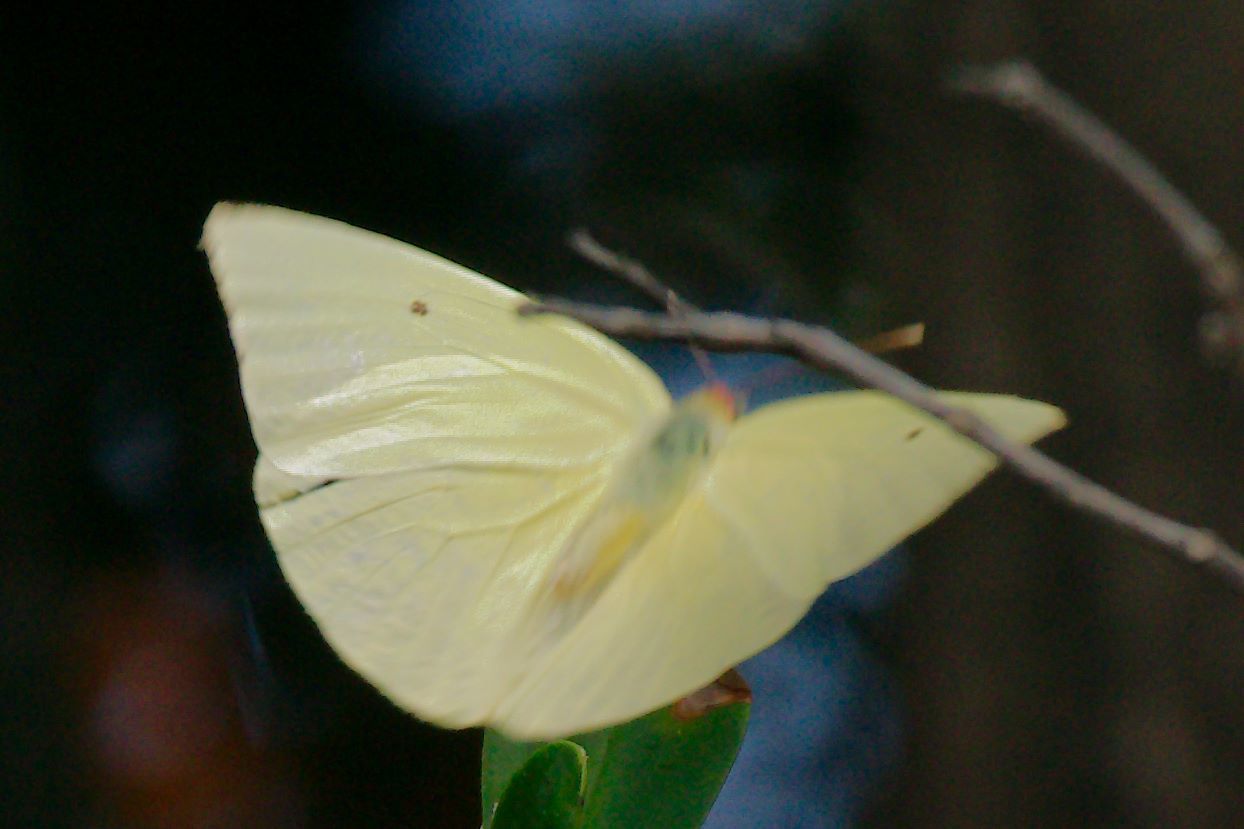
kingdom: Animalia
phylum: Arthropoda
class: Insecta
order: Lepidoptera
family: Pieridae
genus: Aphrissa
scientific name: Aphrissa statira
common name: Statira sulphur
